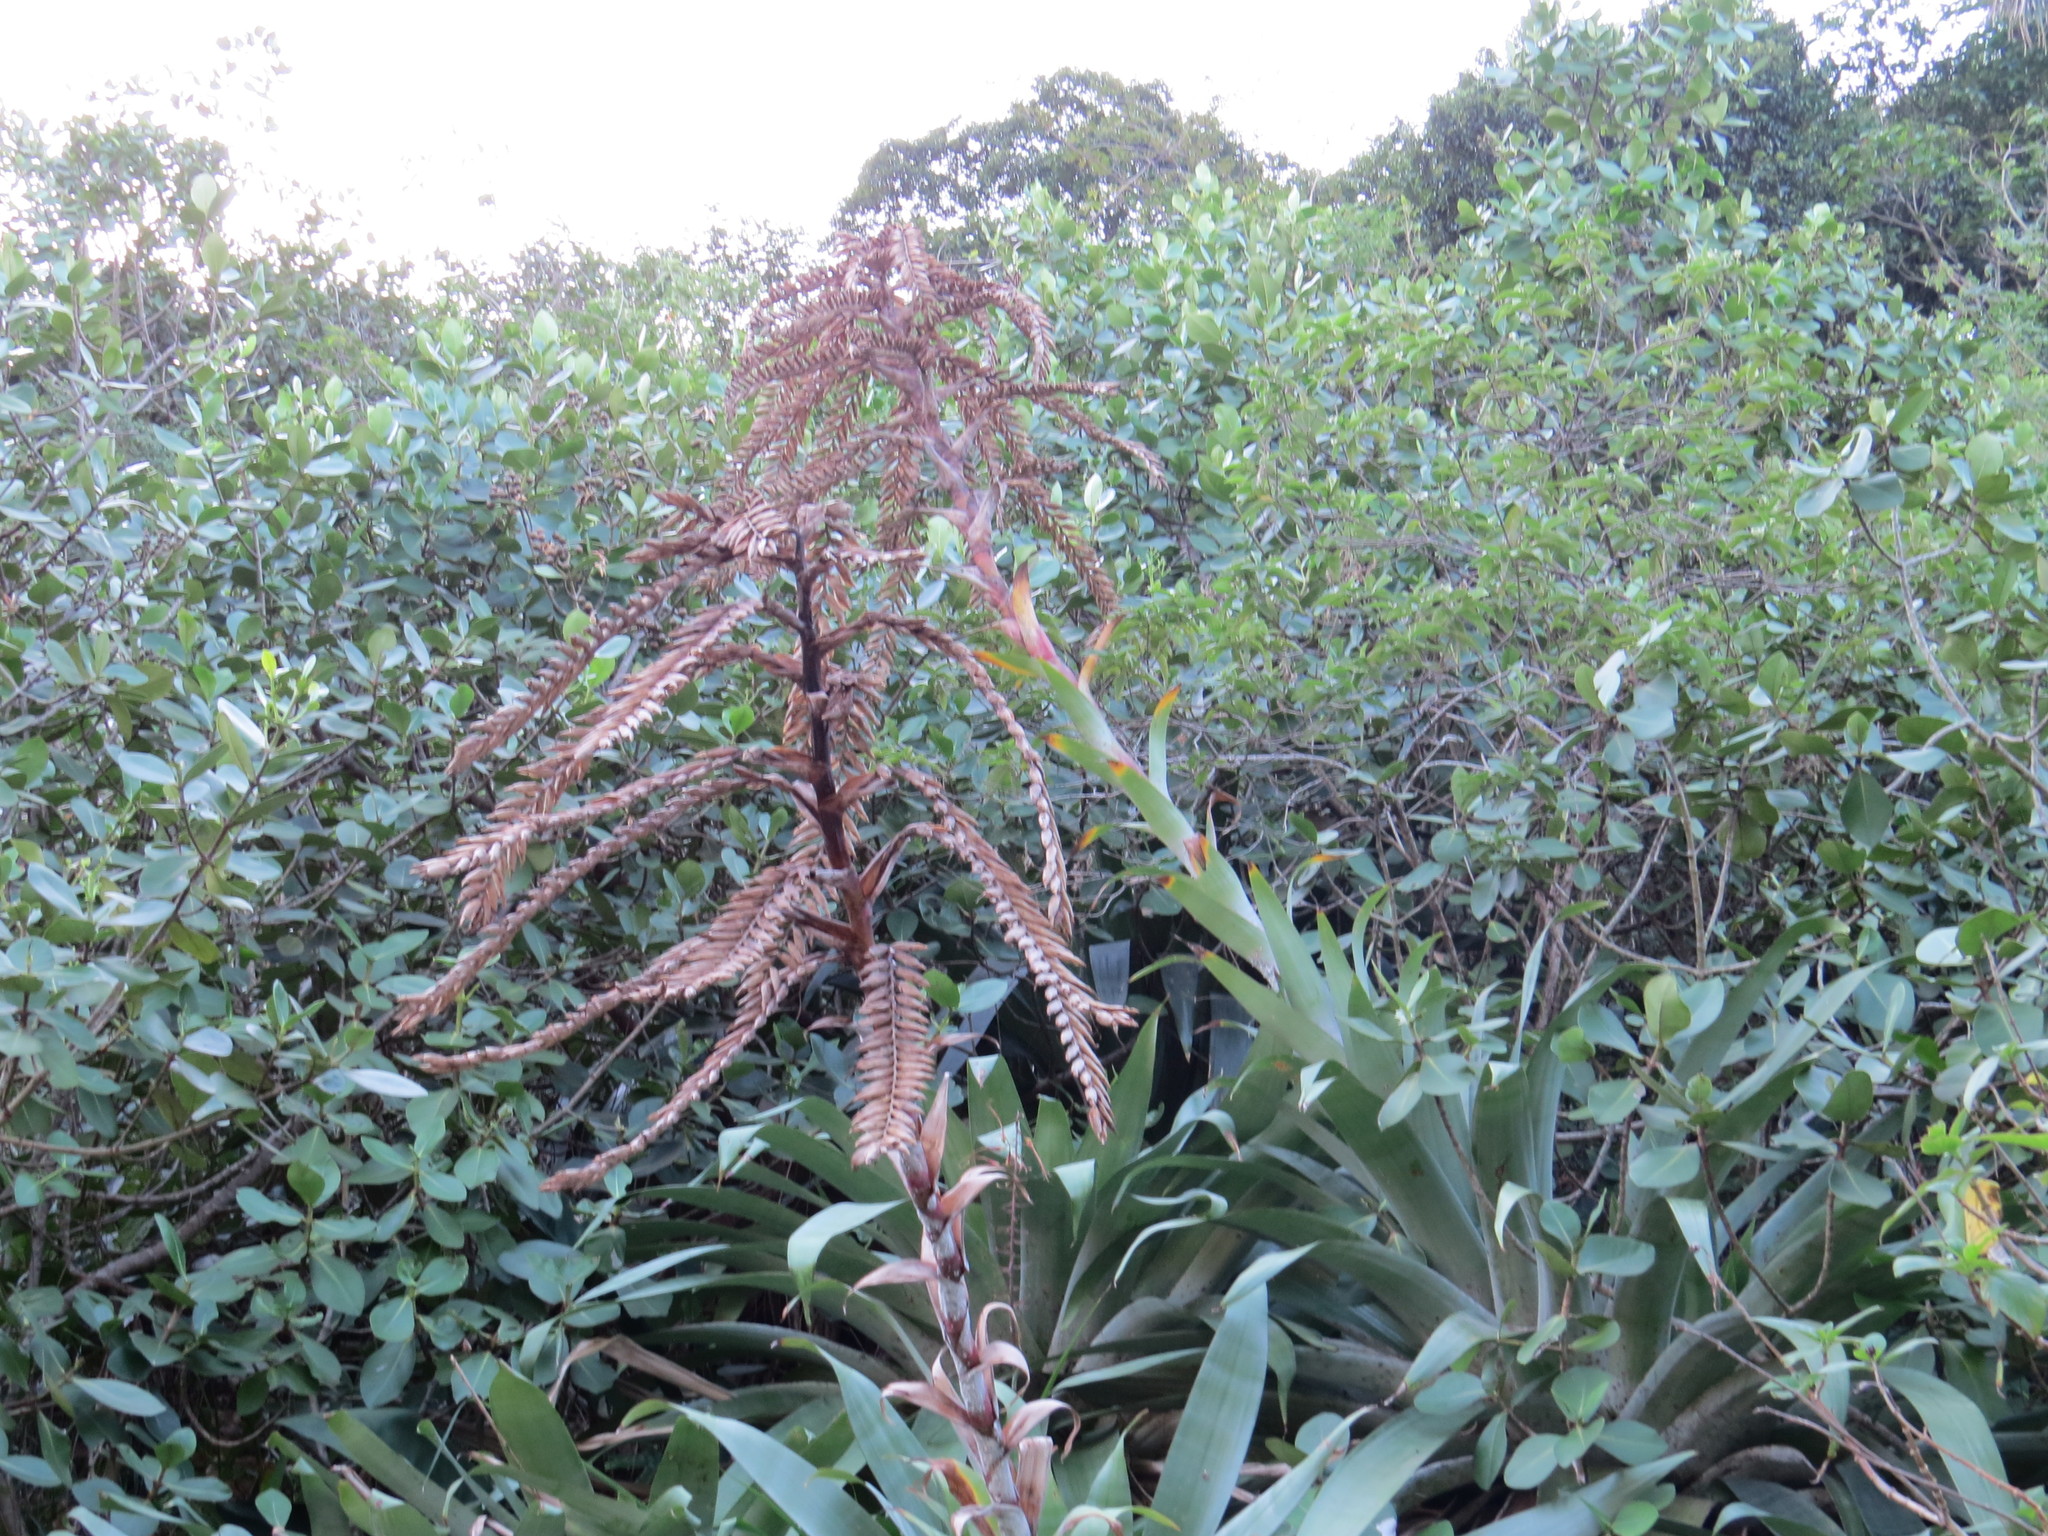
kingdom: Plantae
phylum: Tracheophyta
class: Liliopsida
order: Poales
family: Bromeliaceae
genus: Alcantarea
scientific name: Alcantarea glaziouana
